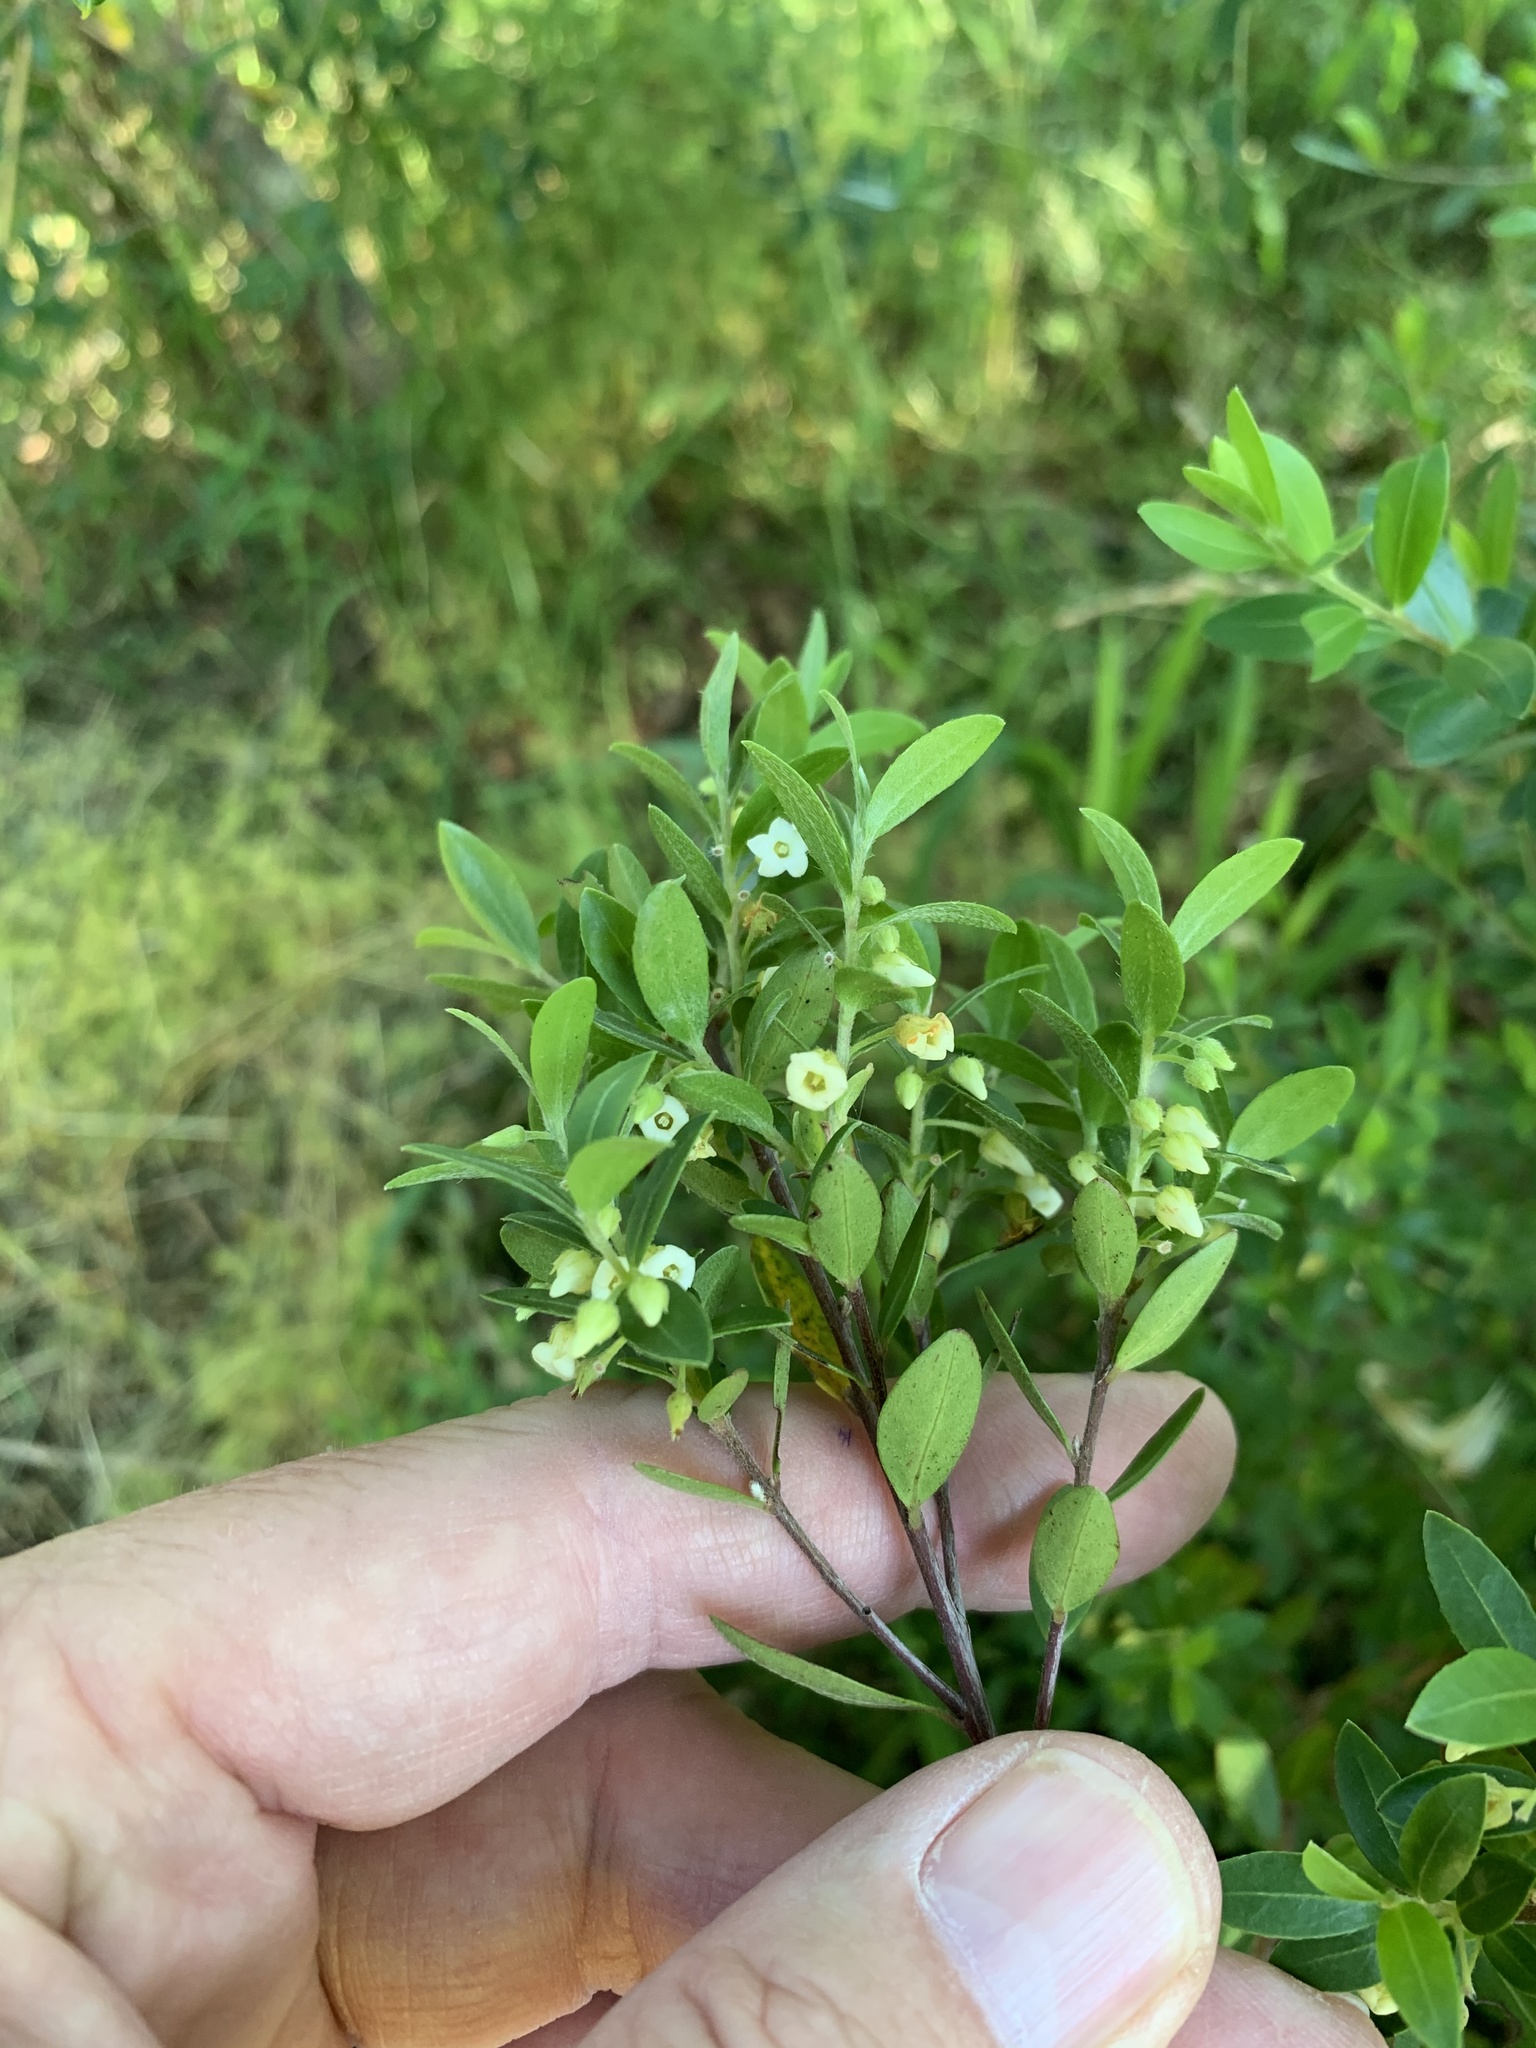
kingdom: Plantae
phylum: Tracheophyta
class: Magnoliopsida
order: Ericales
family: Ebenaceae
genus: Diospyros
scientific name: Diospyros glabra
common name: Fynbos star apple
